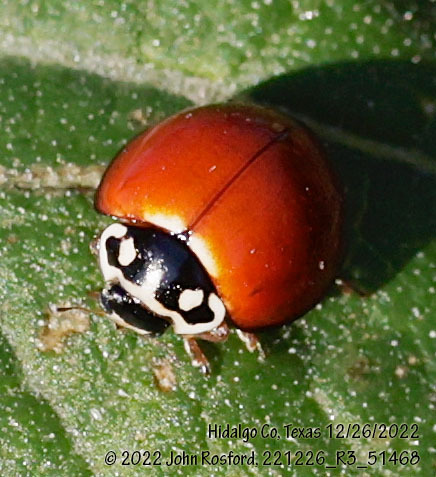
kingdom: Animalia
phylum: Arthropoda
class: Insecta
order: Coleoptera
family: Coccinellidae
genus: Cycloneda
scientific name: Cycloneda sanguinea
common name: Ladybird beetle
